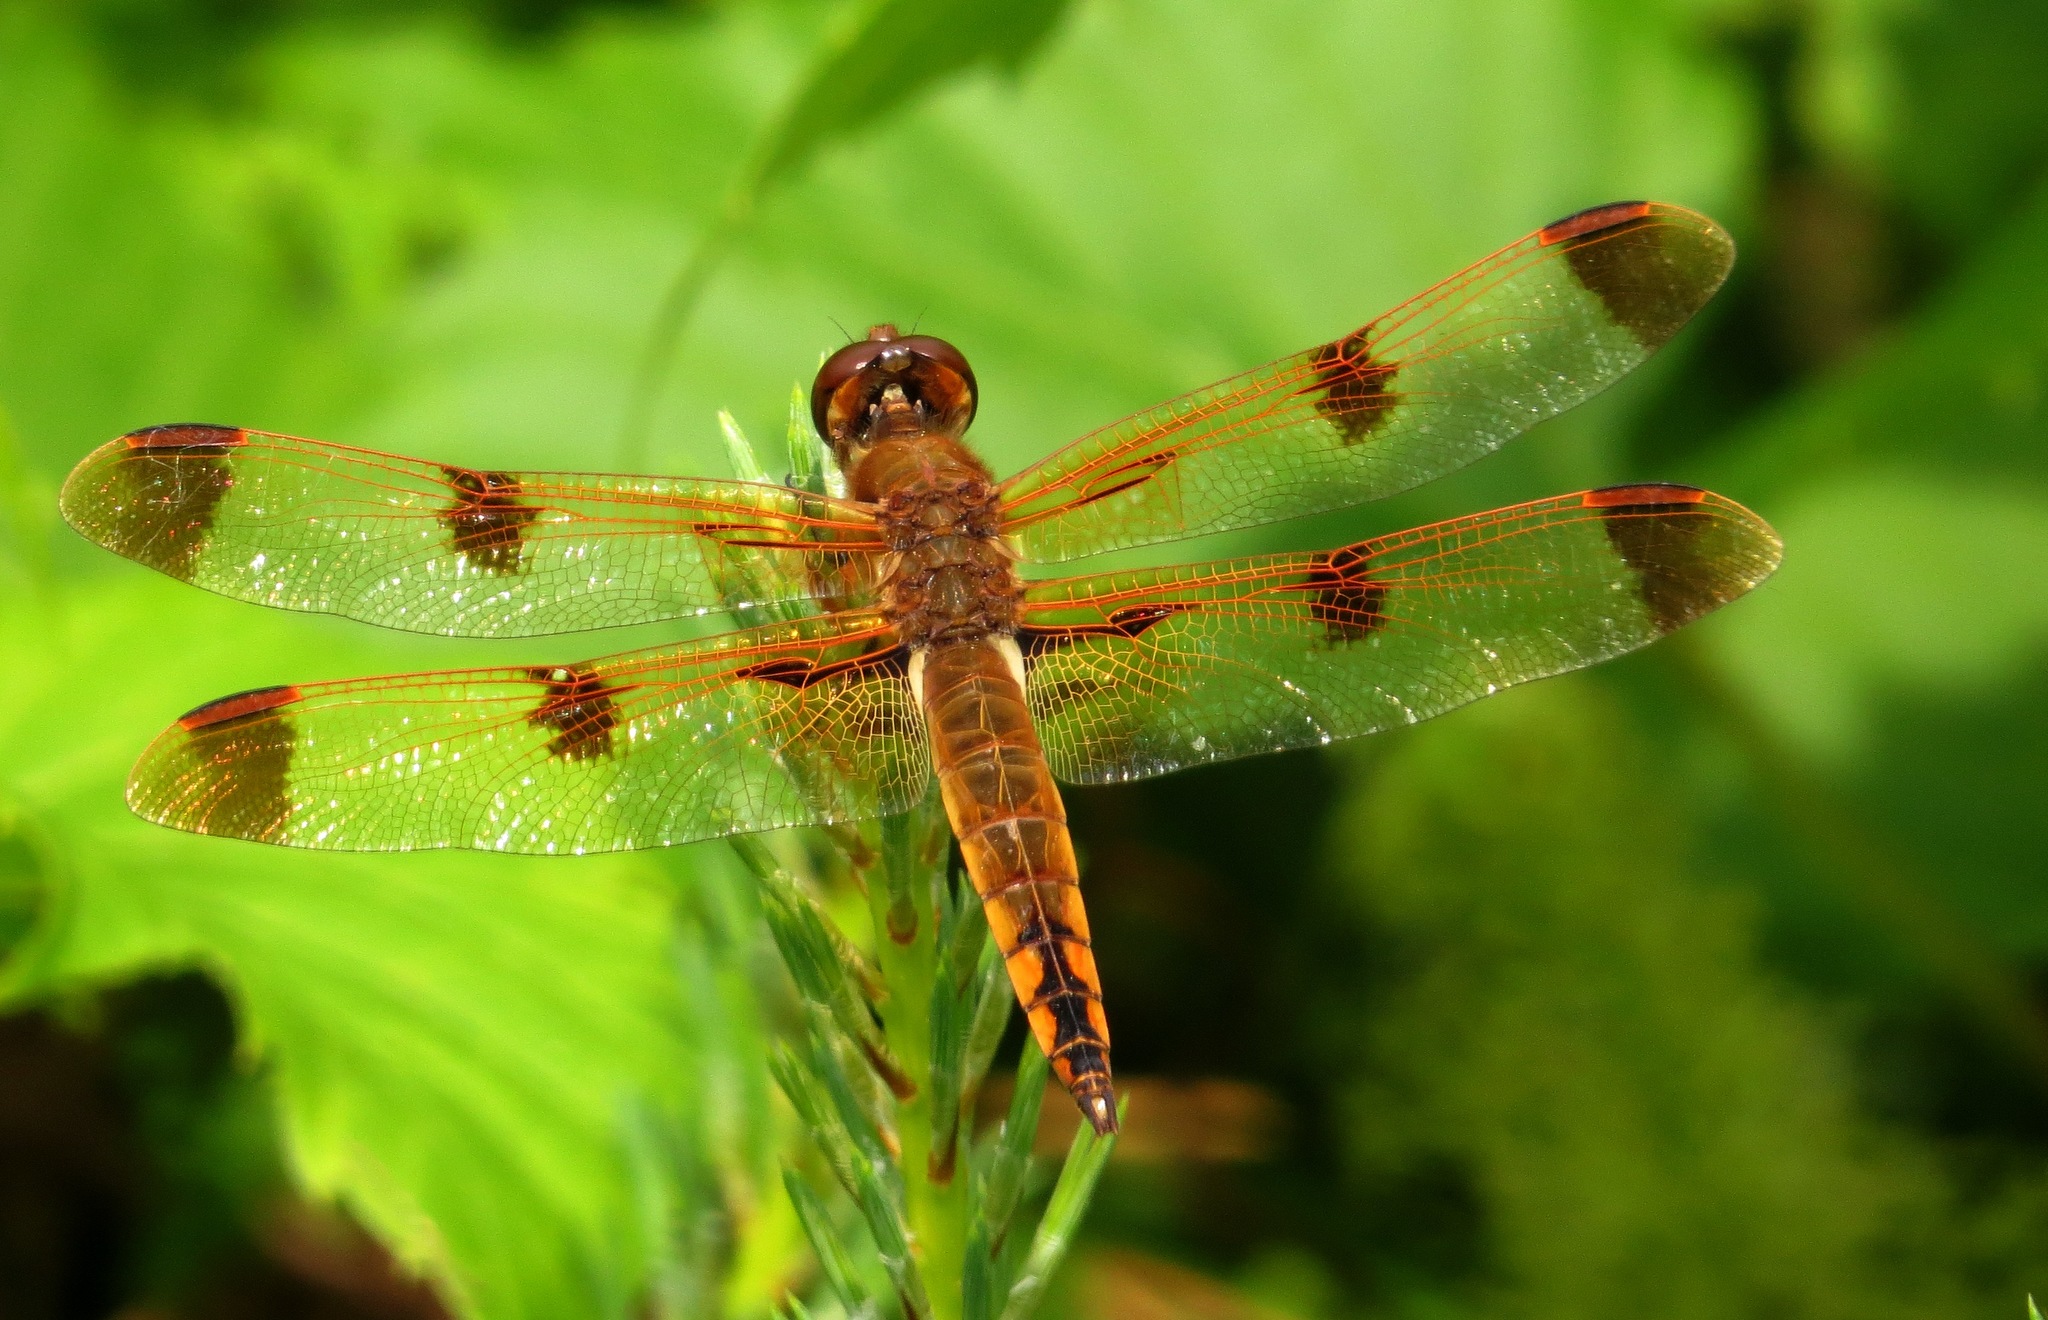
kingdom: Animalia
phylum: Arthropoda
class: Insecta
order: Odonata
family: Libellulidae
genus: Libellula
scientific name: Libellula semifasciata
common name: Painted skimmer
